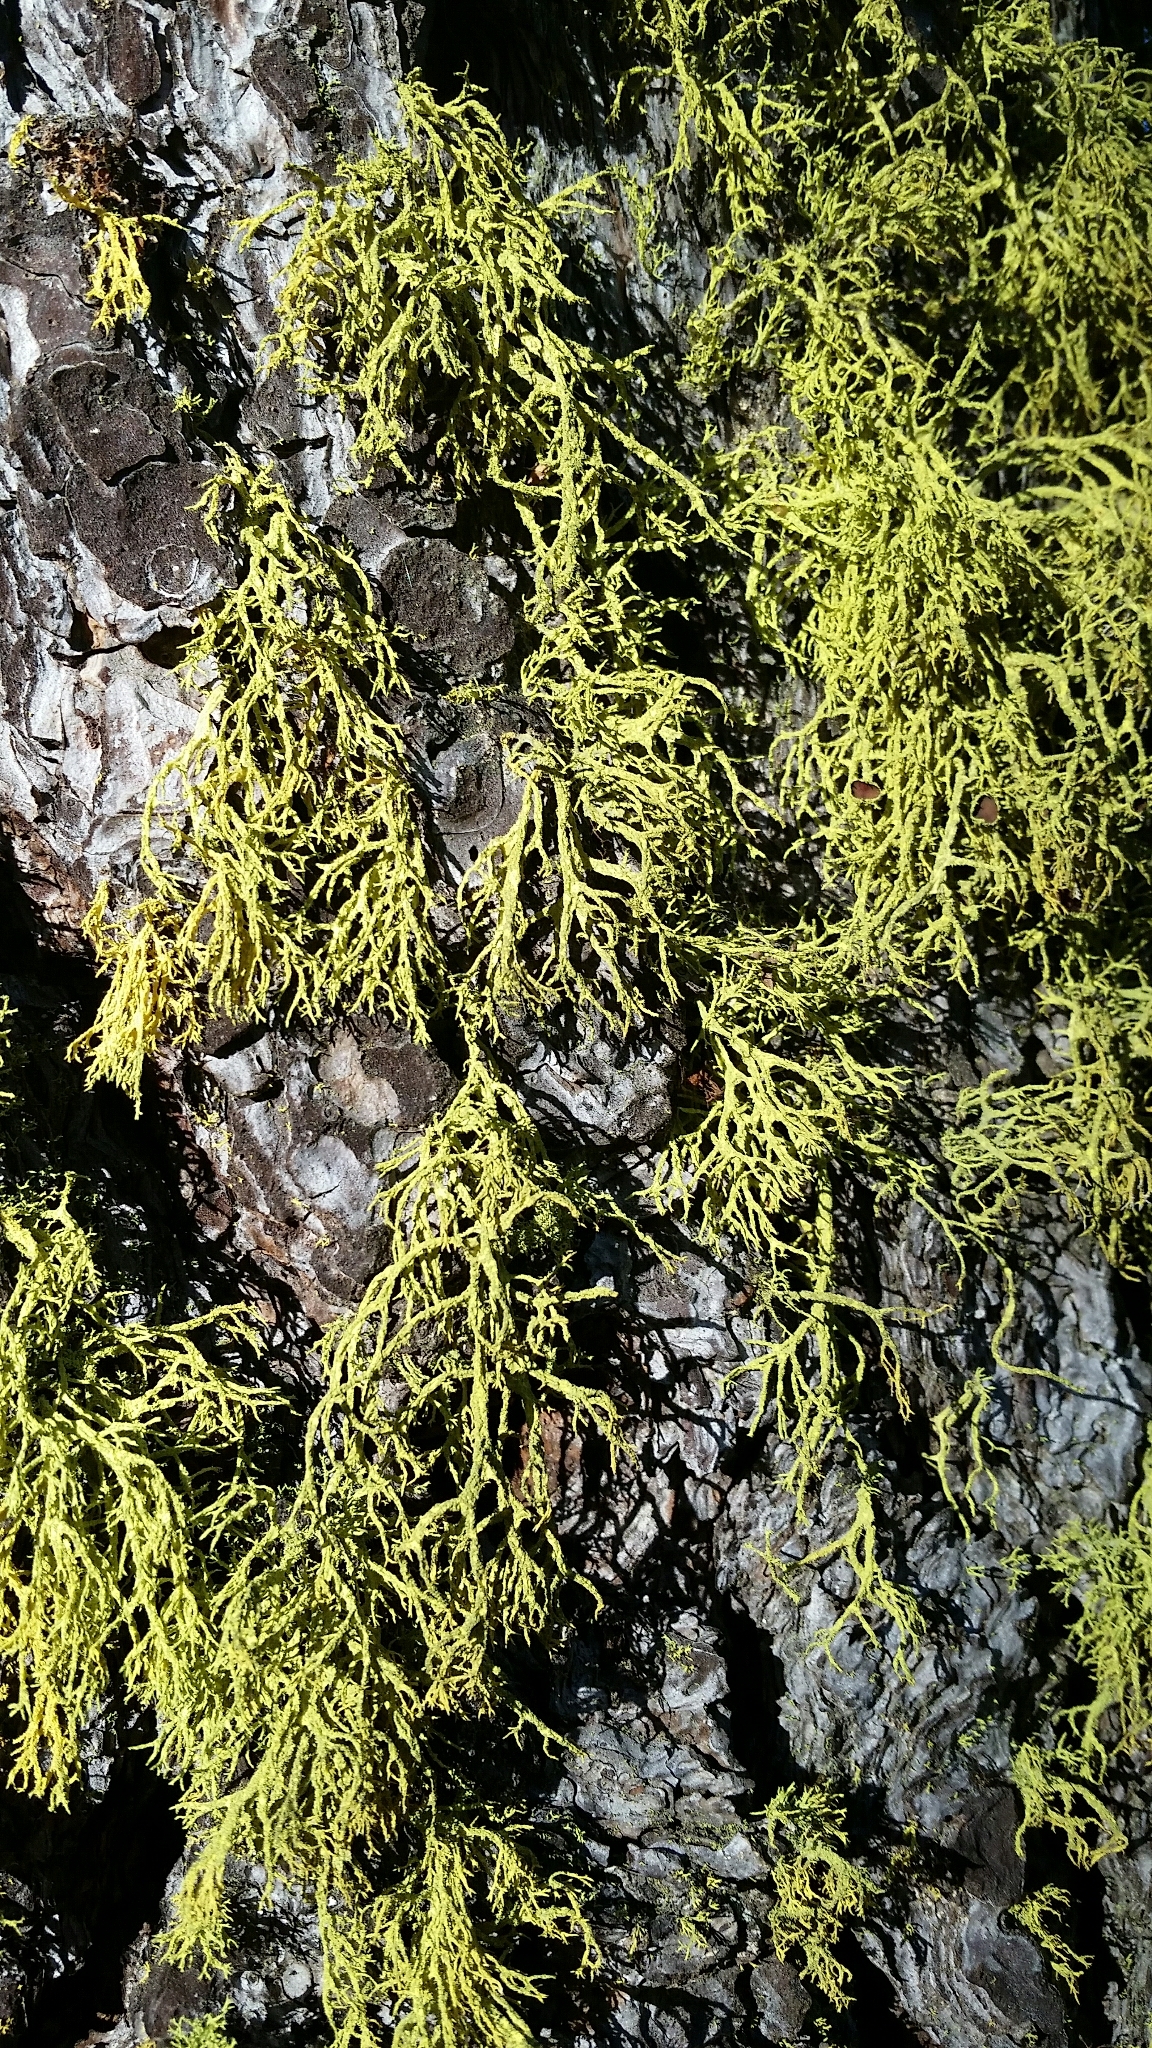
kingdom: Fungi
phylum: Ascomycota
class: Lecanoromycetes
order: Lecanorales
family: Parmeliaceae
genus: Letharia
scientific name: Letharia vulpina
